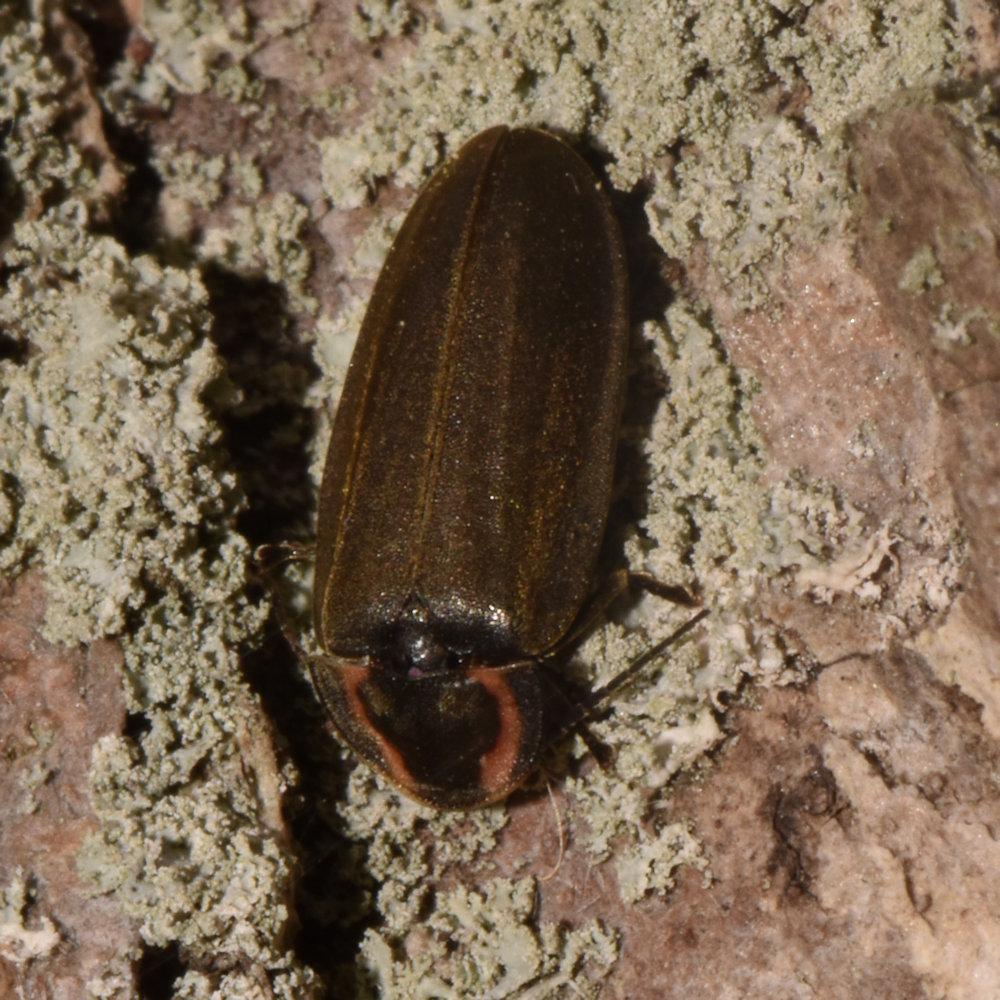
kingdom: Animalia
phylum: Arthropoda
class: Insecta
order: Coleoptera
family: Lampyridae
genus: Photinus
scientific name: Photinus corrusca
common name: Winter firefly
